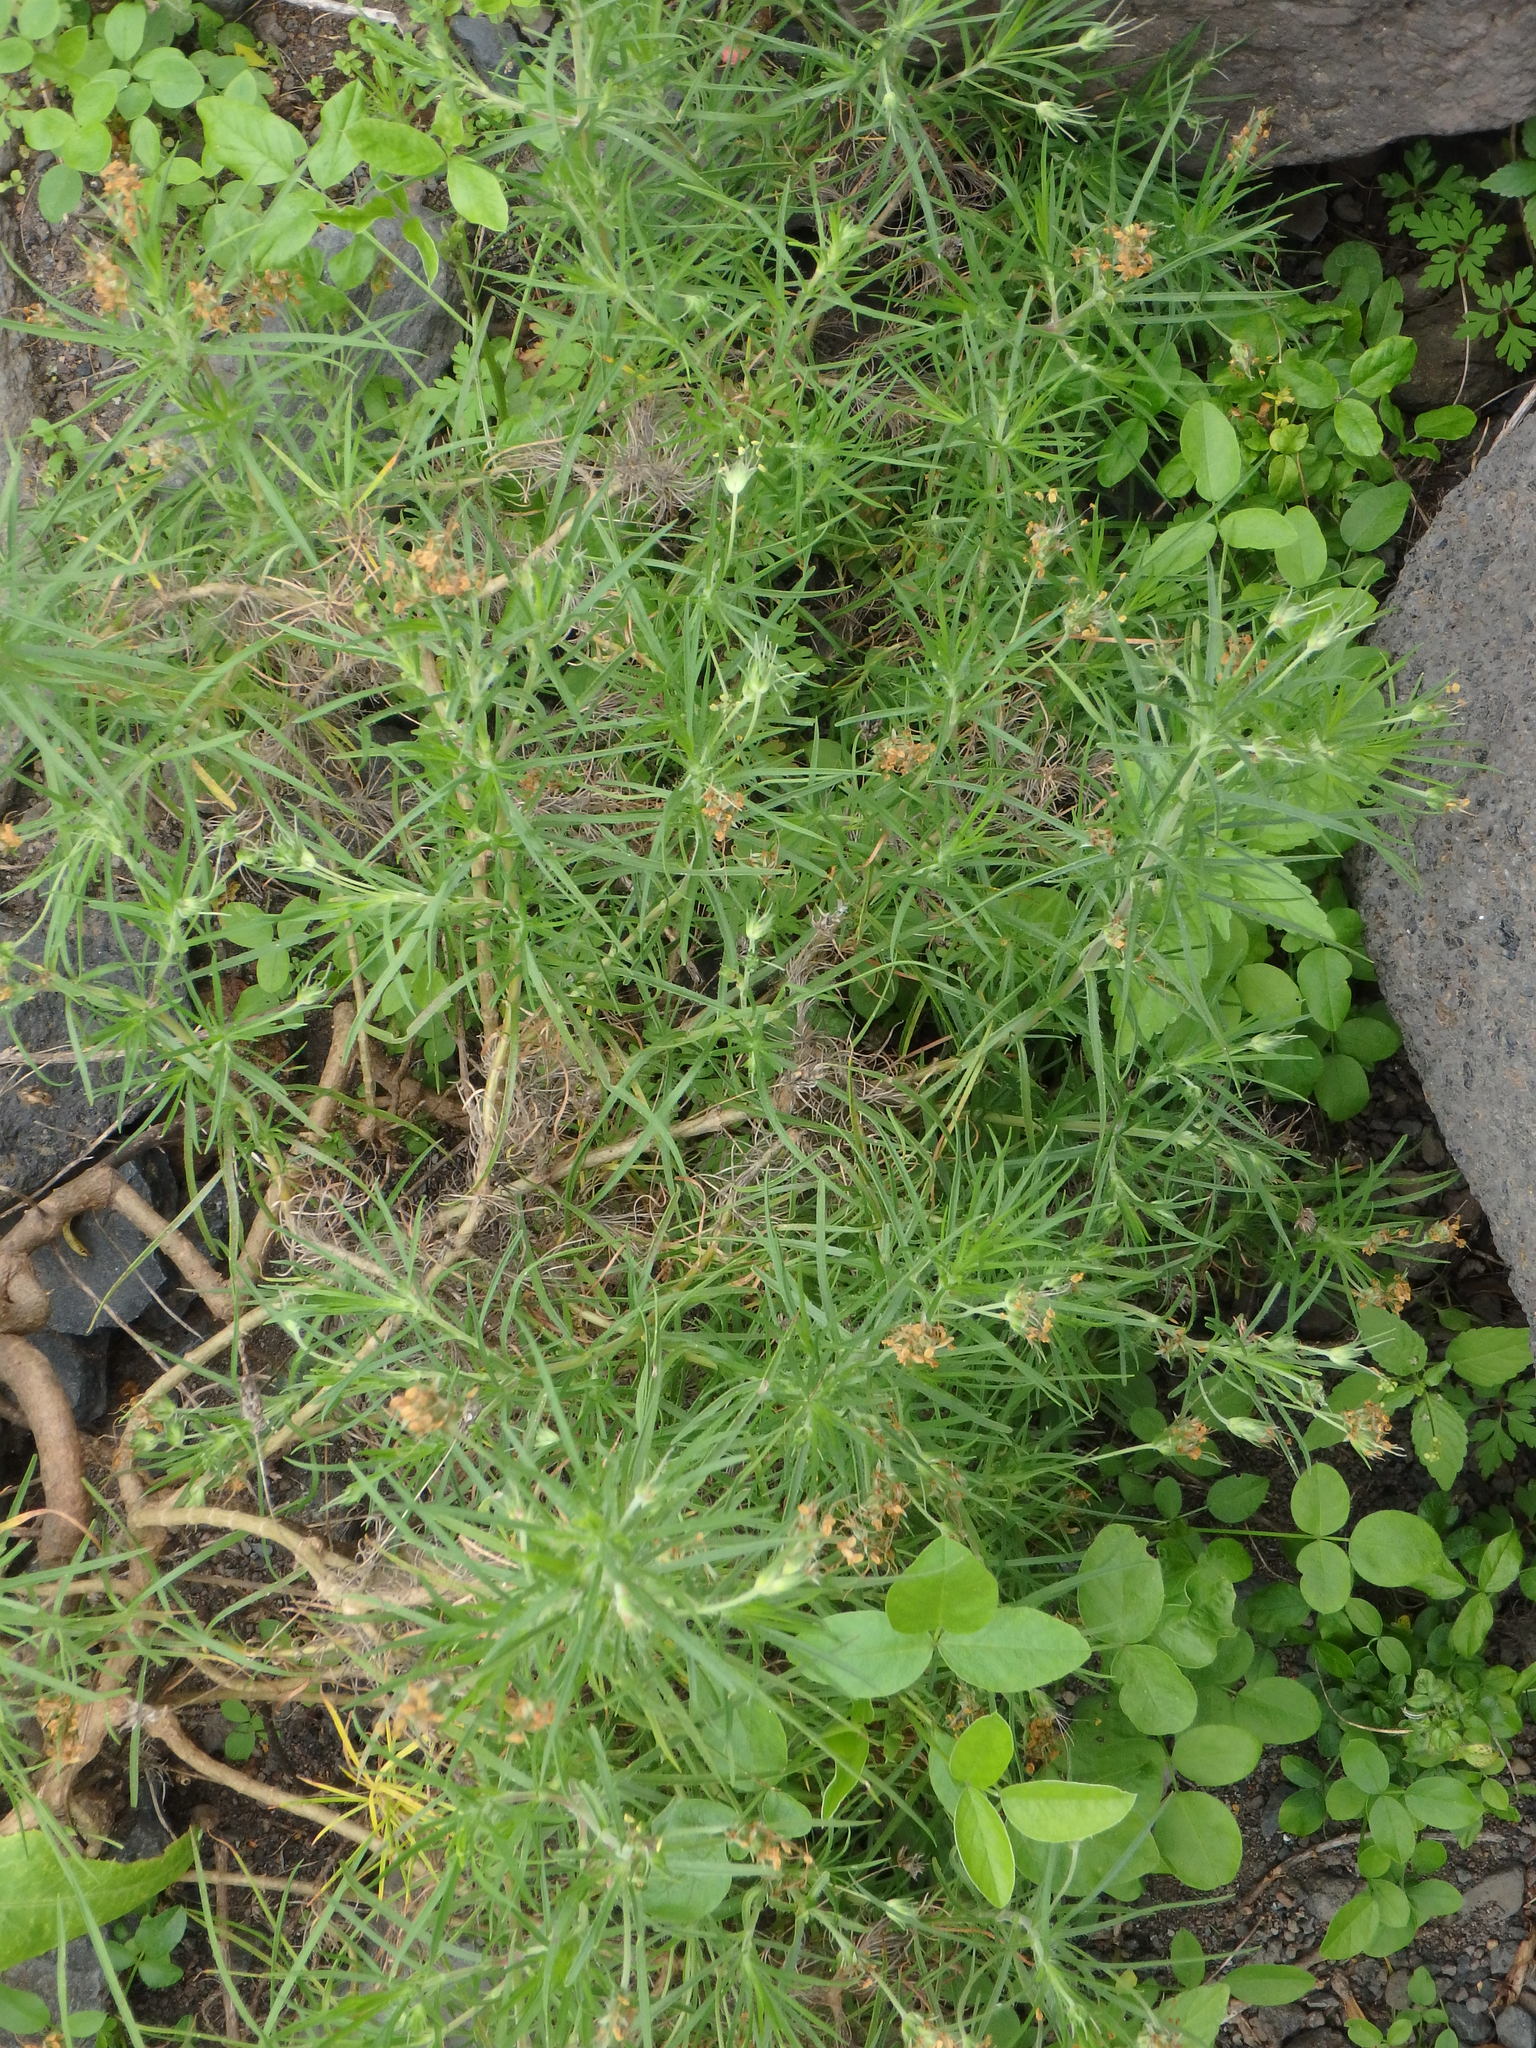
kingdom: Plantae
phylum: Tracheophyta
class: Magnoliopsida
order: Lamiales
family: Plantaginaceae
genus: Plantago
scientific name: Plantago arborescens
